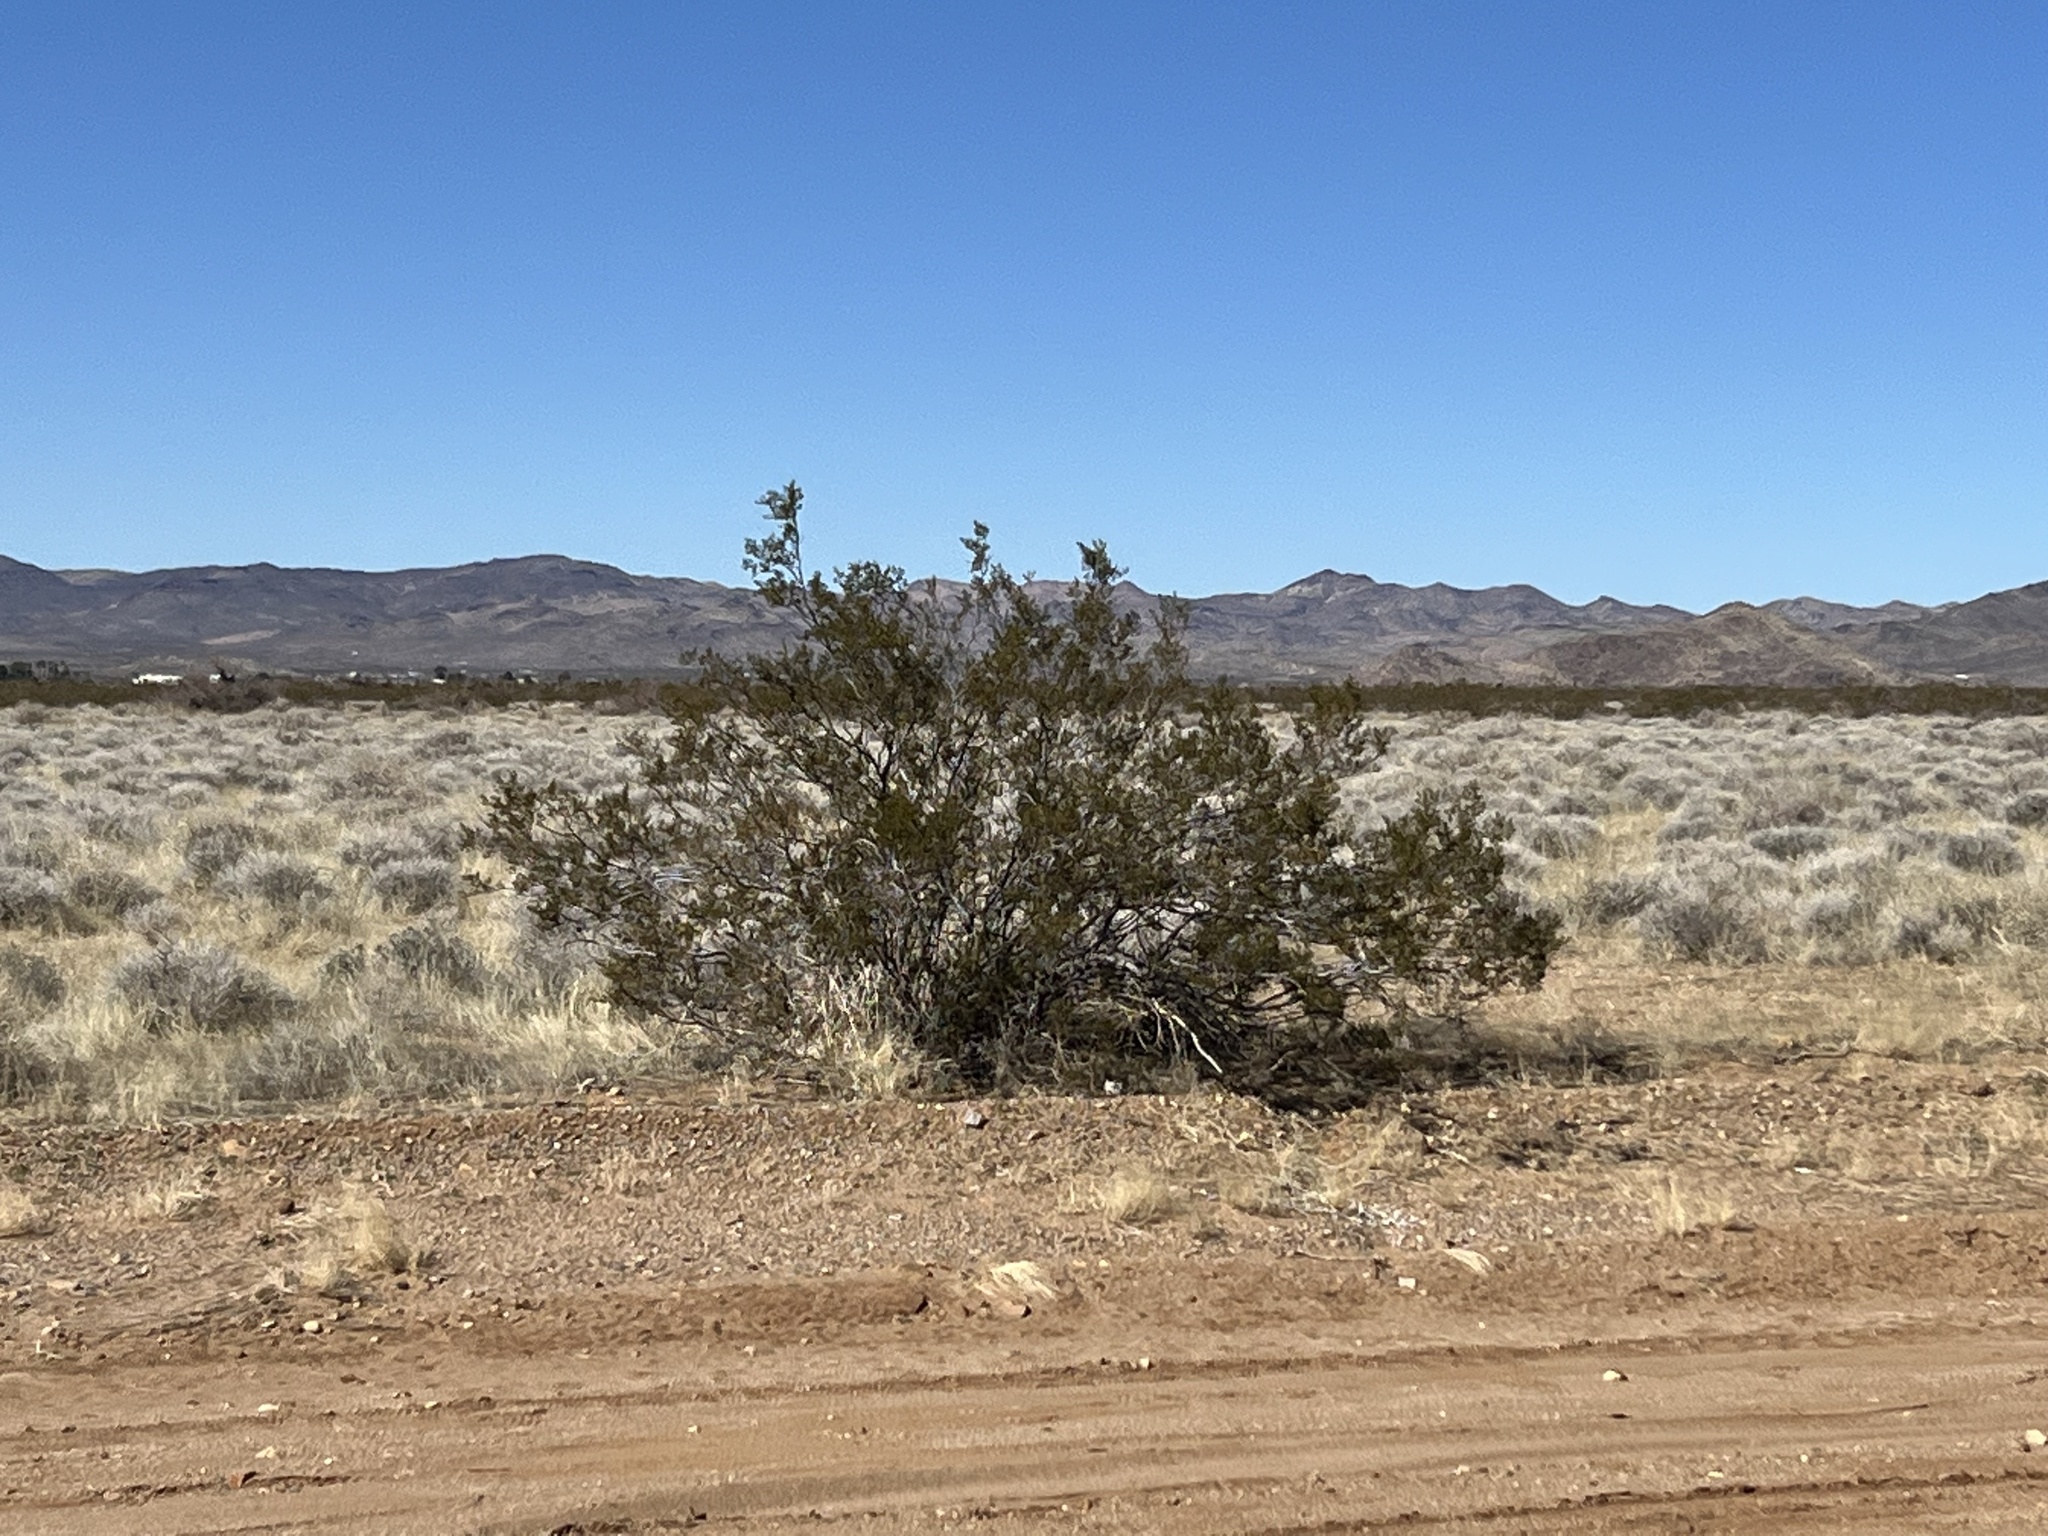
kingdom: Plantae
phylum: Tracheophyta
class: Magnoliopsida
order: Zygophyllales
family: Zygophyllaceae
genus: Larrea
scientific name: Larrea tridentata
